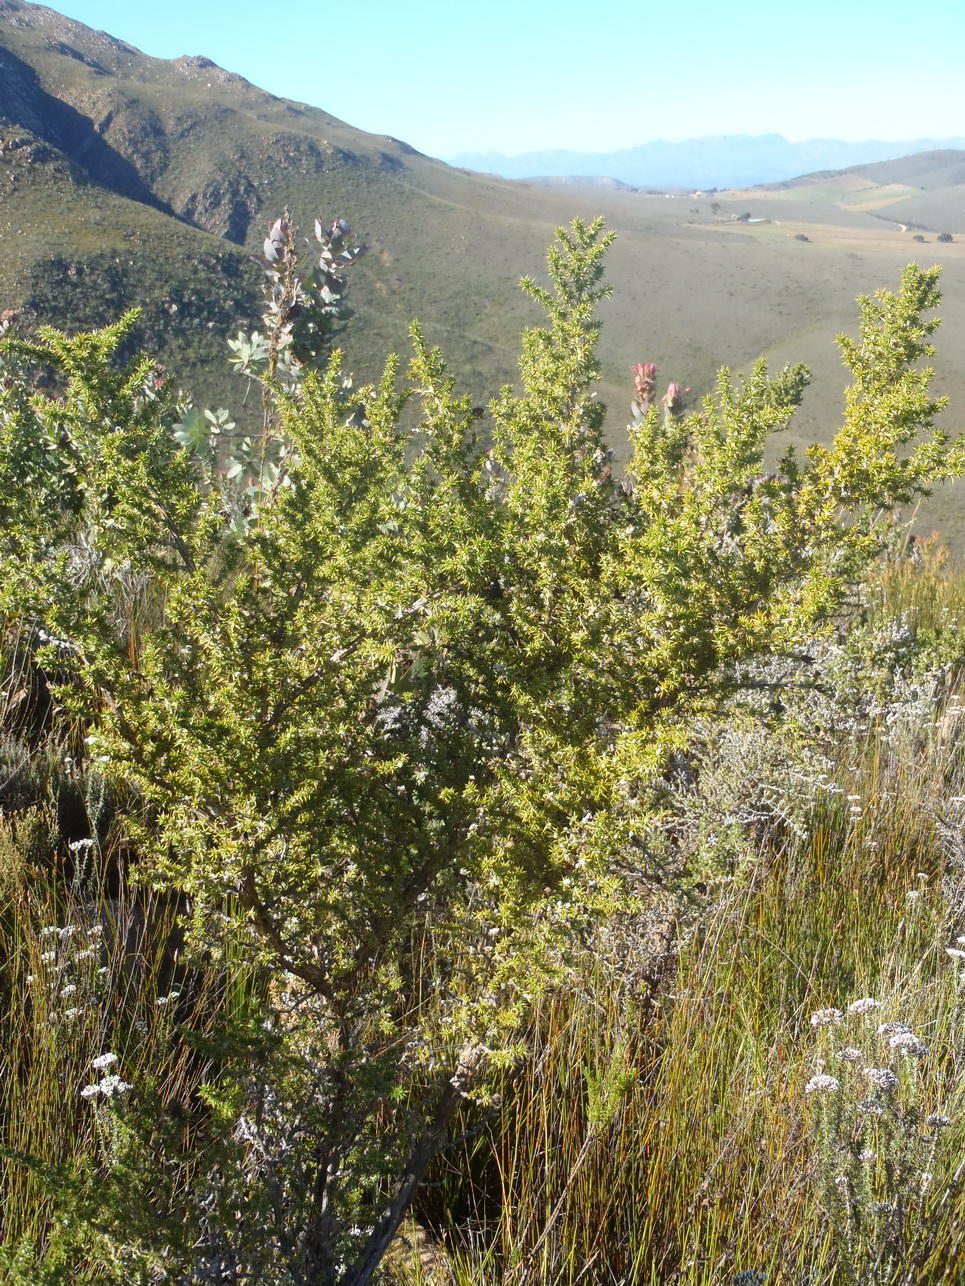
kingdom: Plantae
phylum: Tracheophyta
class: Magnoliopsida
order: Fabales
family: Fabaceae
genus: Aspalathus
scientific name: Aspalathus aciphylla
